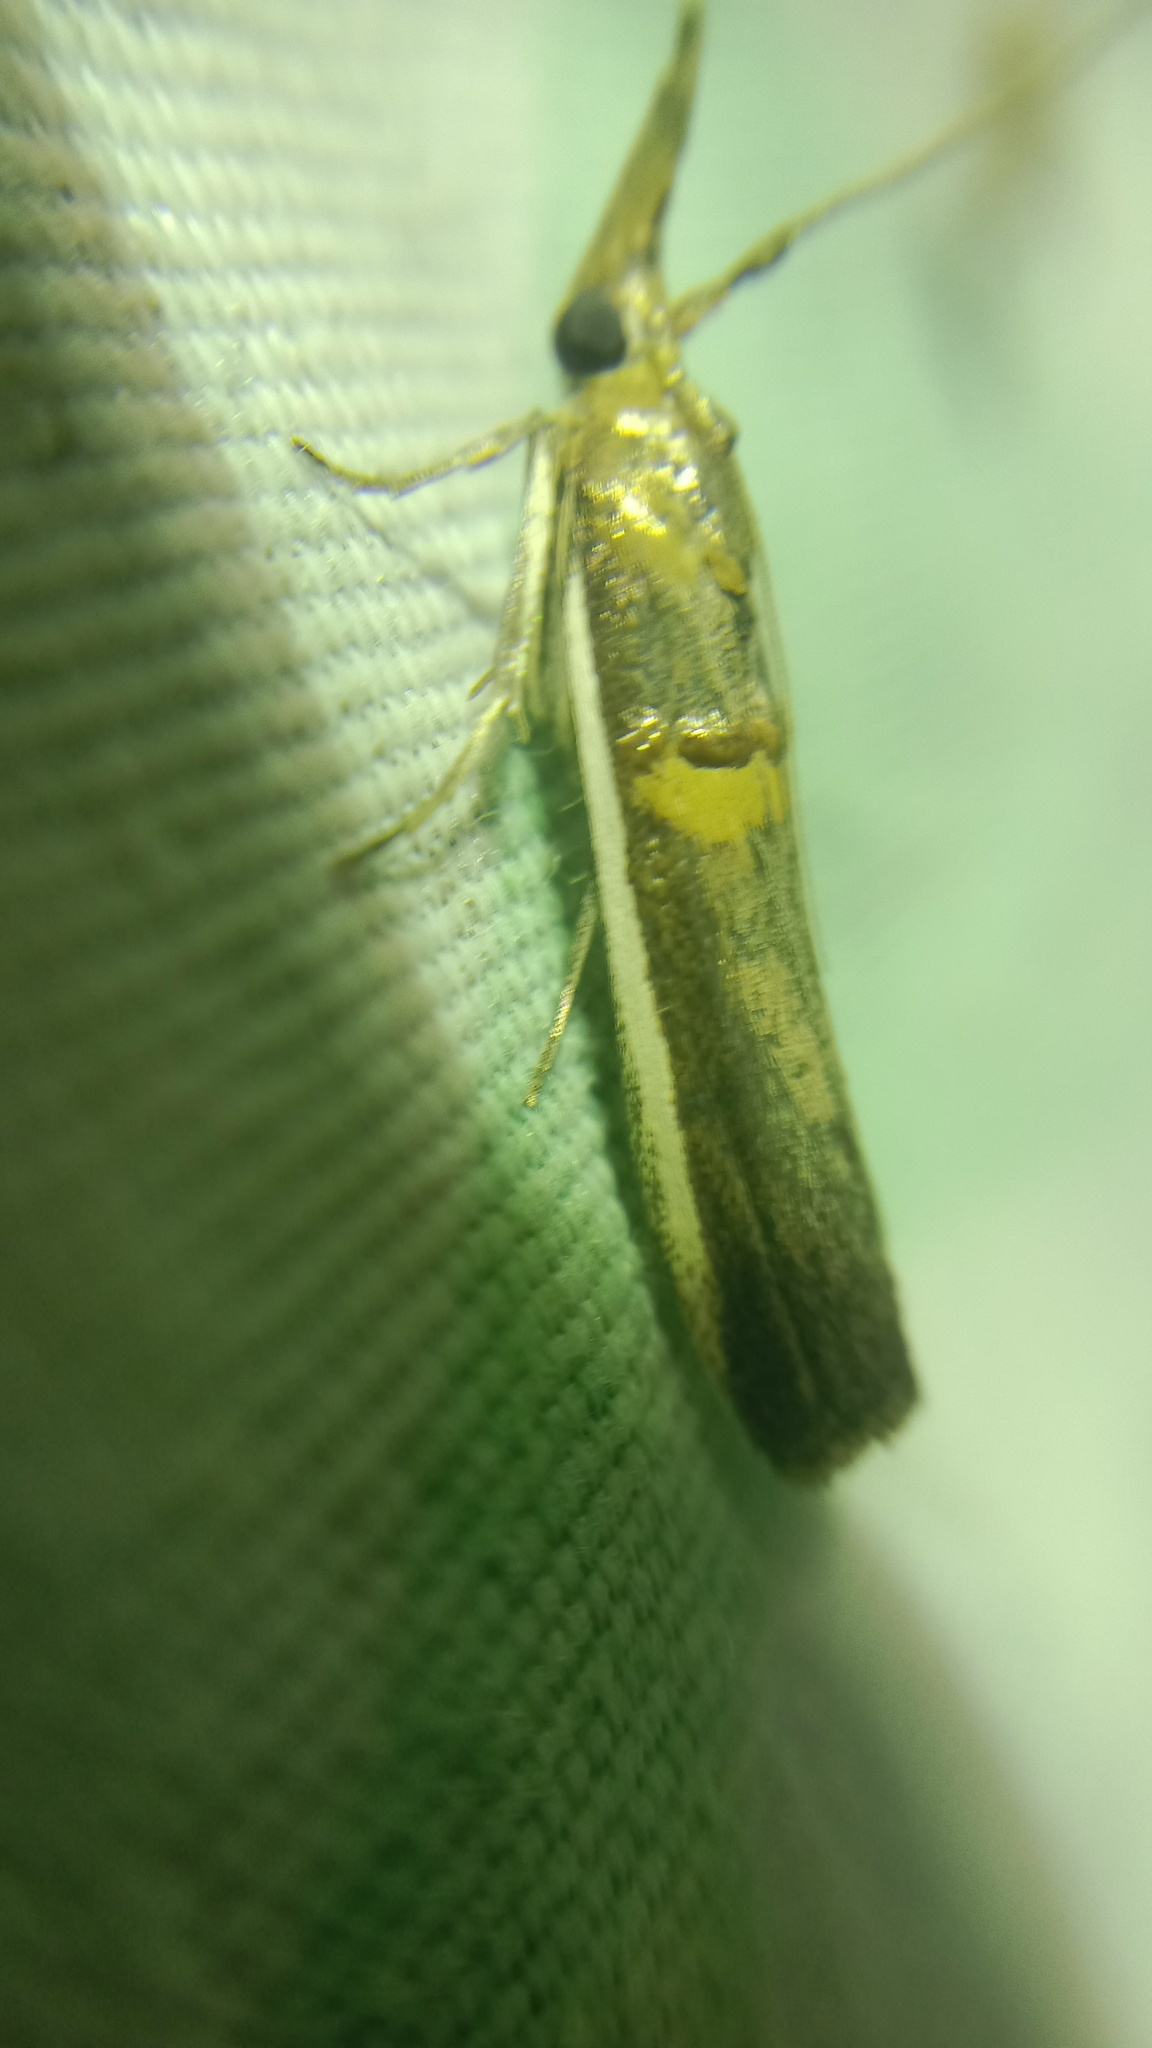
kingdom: Animalia
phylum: Arthropoda
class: Insecta
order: Lepidoptera
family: Pyralidae
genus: Etiella
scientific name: Etiella zinckenella
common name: Gold-banded etiella moth
